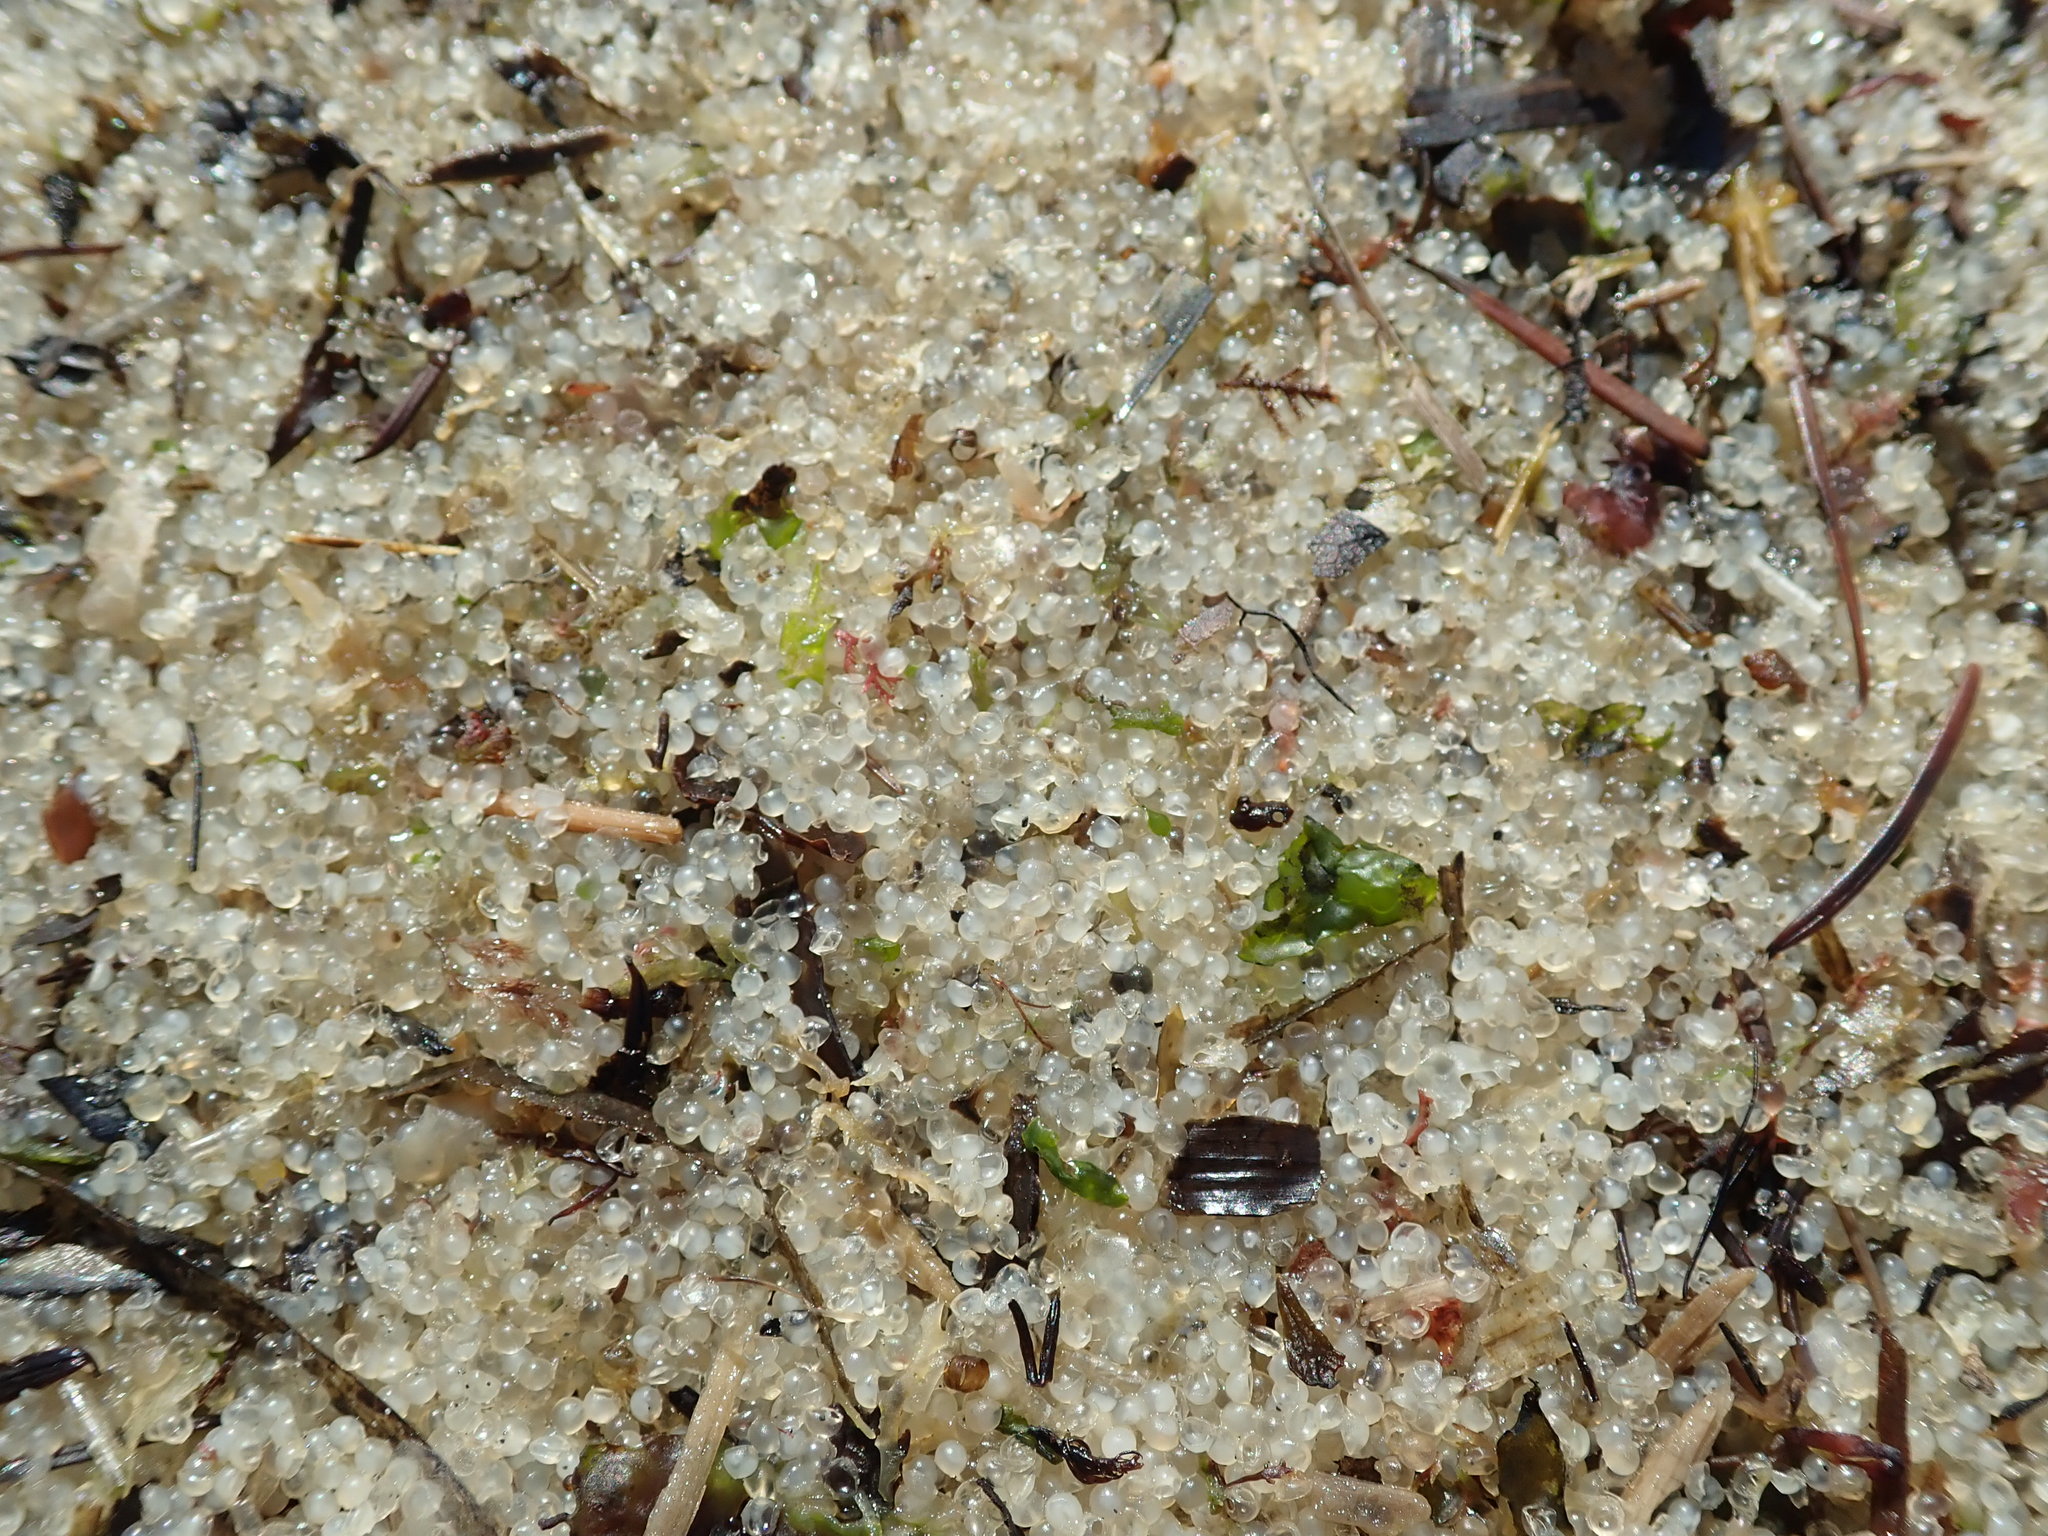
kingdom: Animalia
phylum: Chordata
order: Clupeiformes
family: Clupeidae
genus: Clupea
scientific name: Clupea pallasii
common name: Pacific herring
